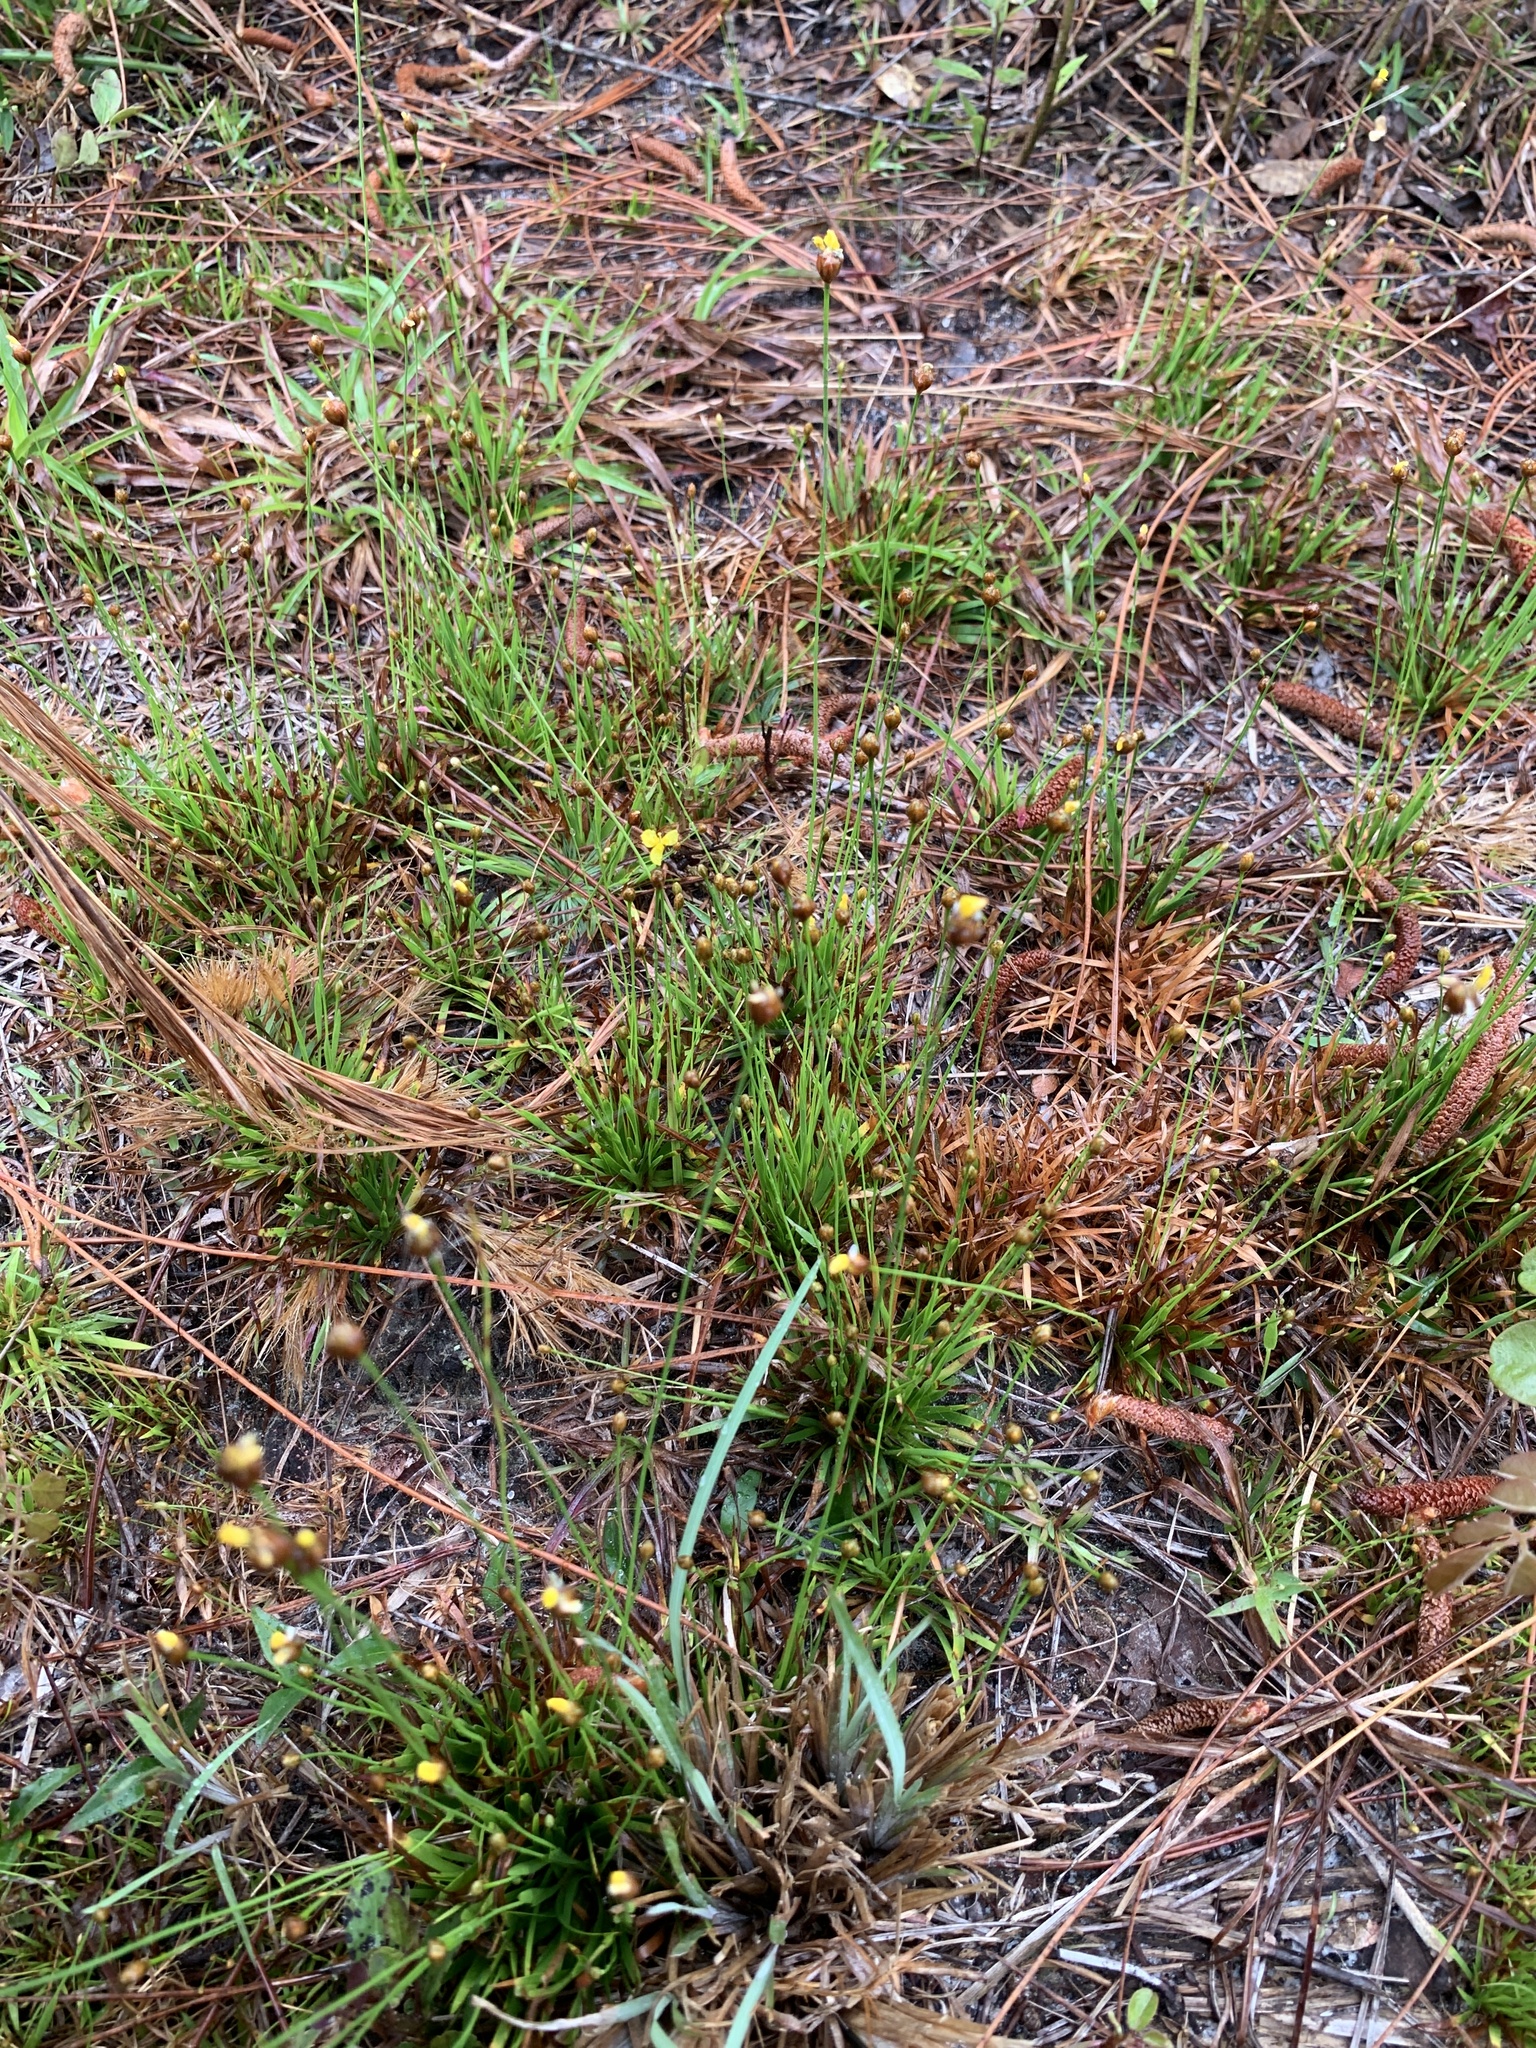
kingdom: Plantae
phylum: Tracheophyta
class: Liliopsida
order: Poales
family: Xyridaceae
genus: Xyris
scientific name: Xyris brevifolia
